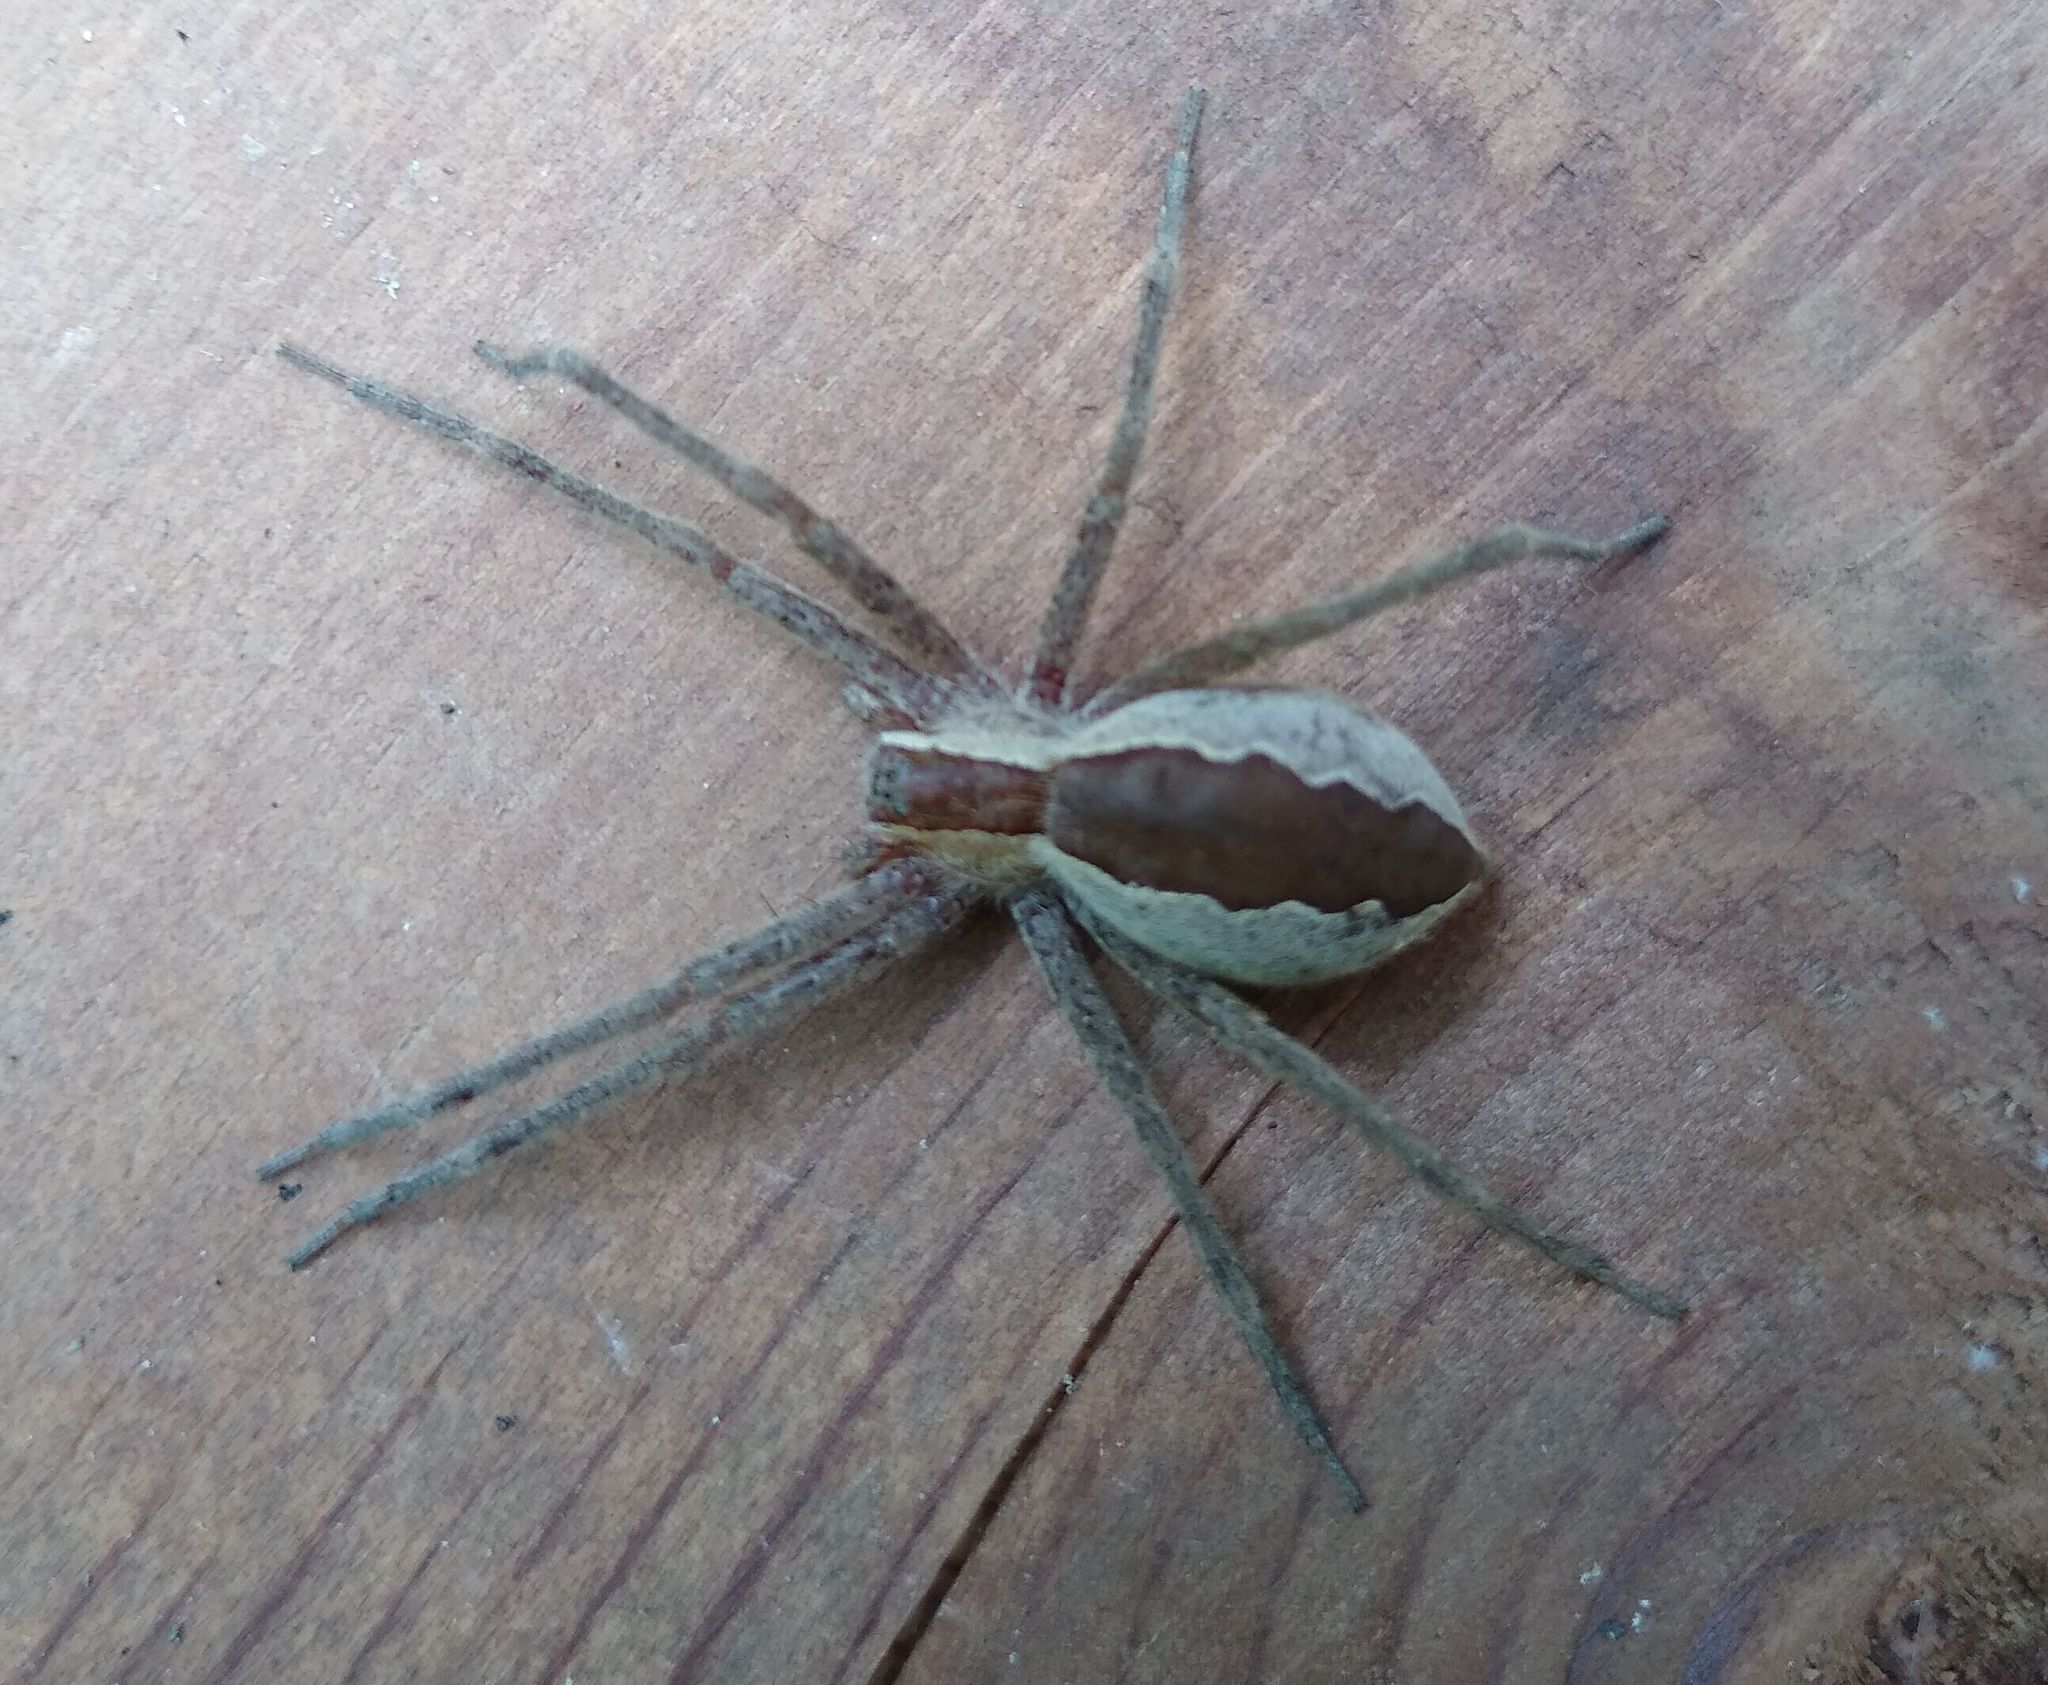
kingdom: Animalia
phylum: Arthropoda
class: Arachnida
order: Araneae
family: Pisauridae
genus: Pisaurina
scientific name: Pisaurina mira
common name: American nursery web spider
